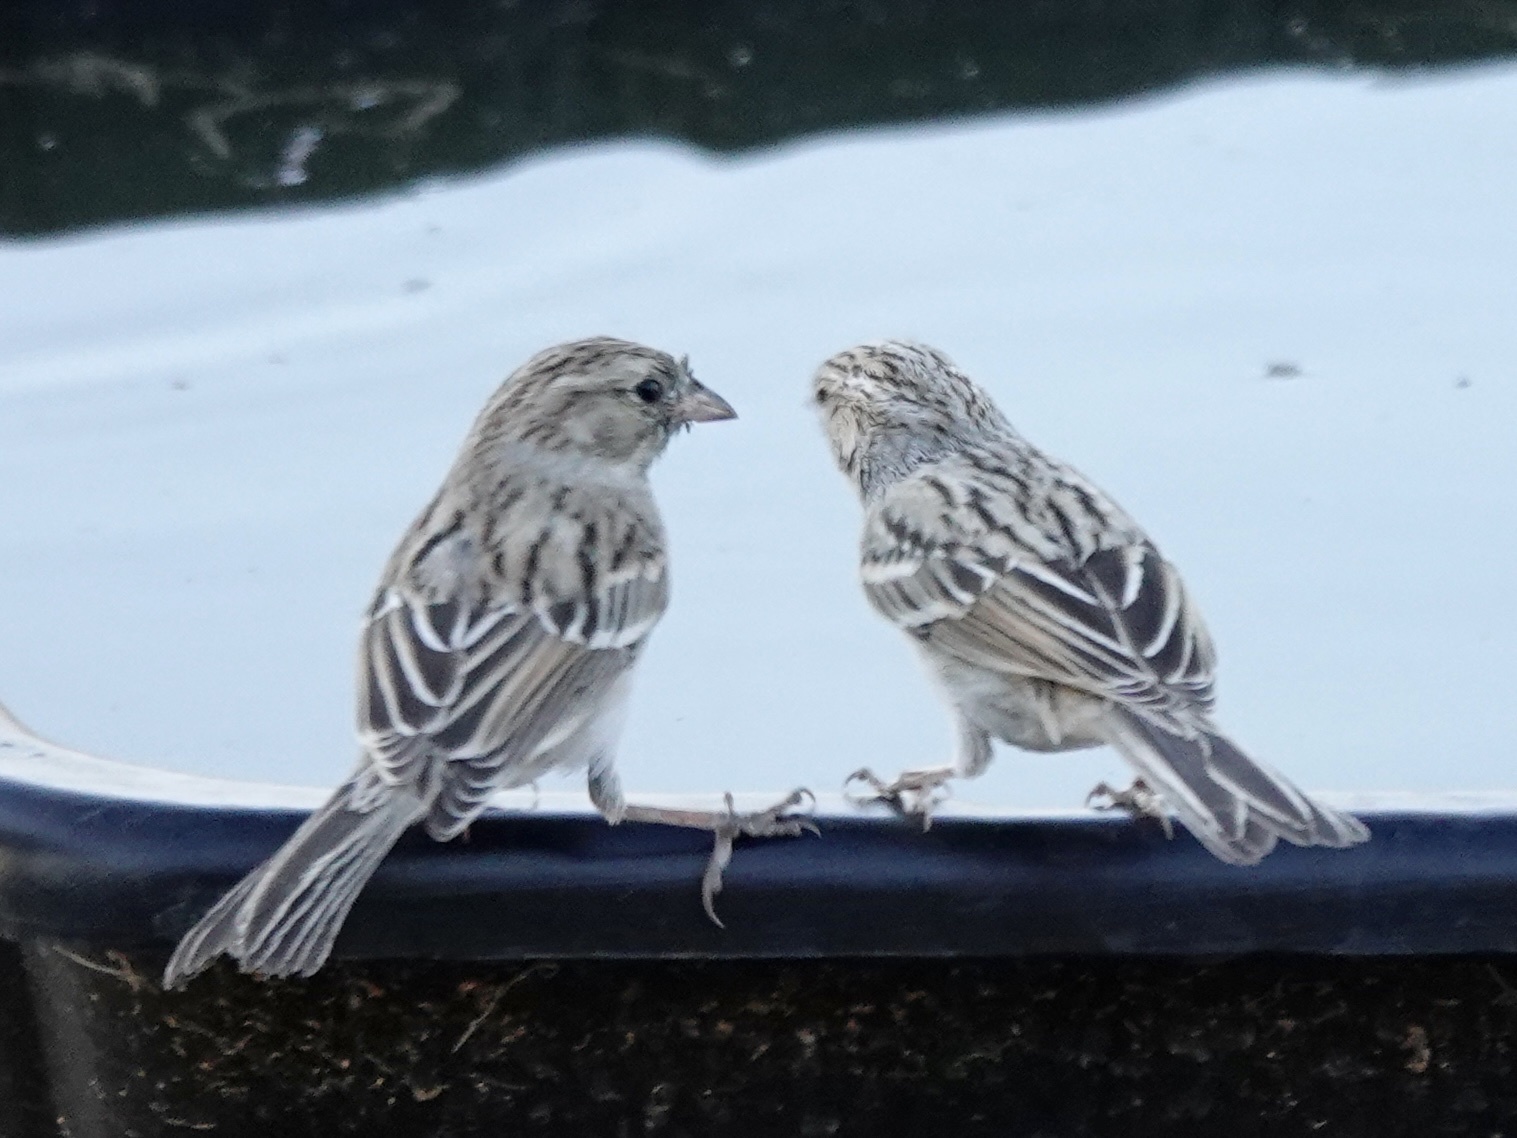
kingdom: Animalia
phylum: Chordata
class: Aves
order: Passeriformes
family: Passerellidae
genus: Spizella
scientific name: Spizella breweri
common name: Brewer's sparrow
